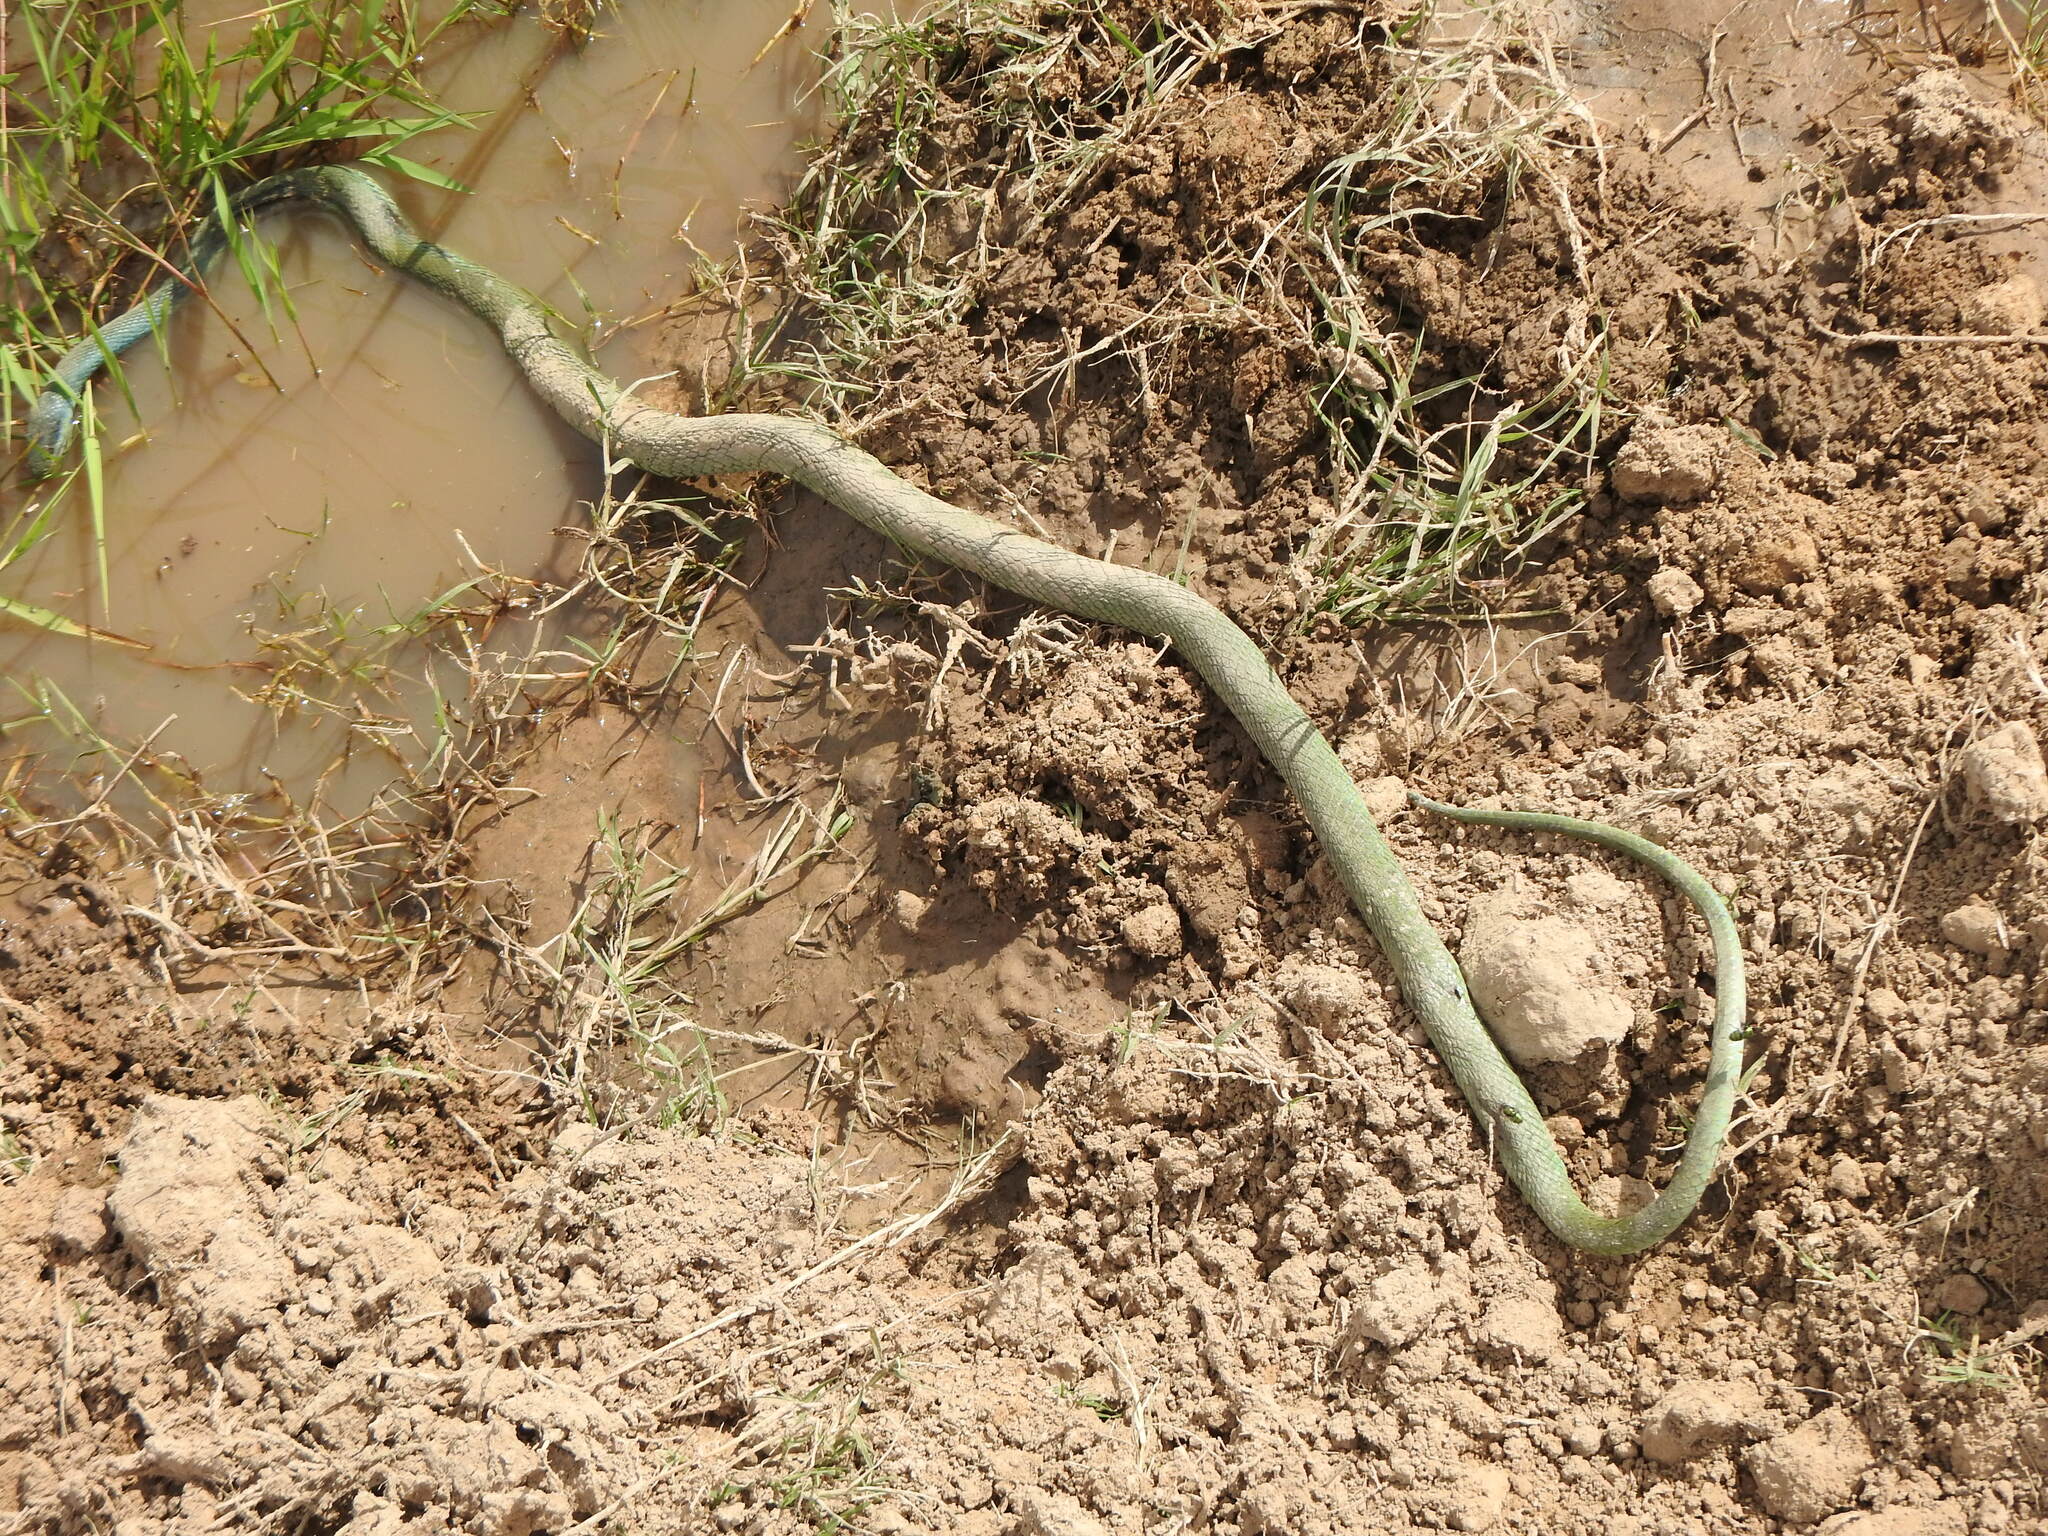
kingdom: Animalia
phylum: Chordata
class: Squamata
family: Colubridae
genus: Philodryas
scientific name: Philodryas aestiva
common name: Brazilian green racer
